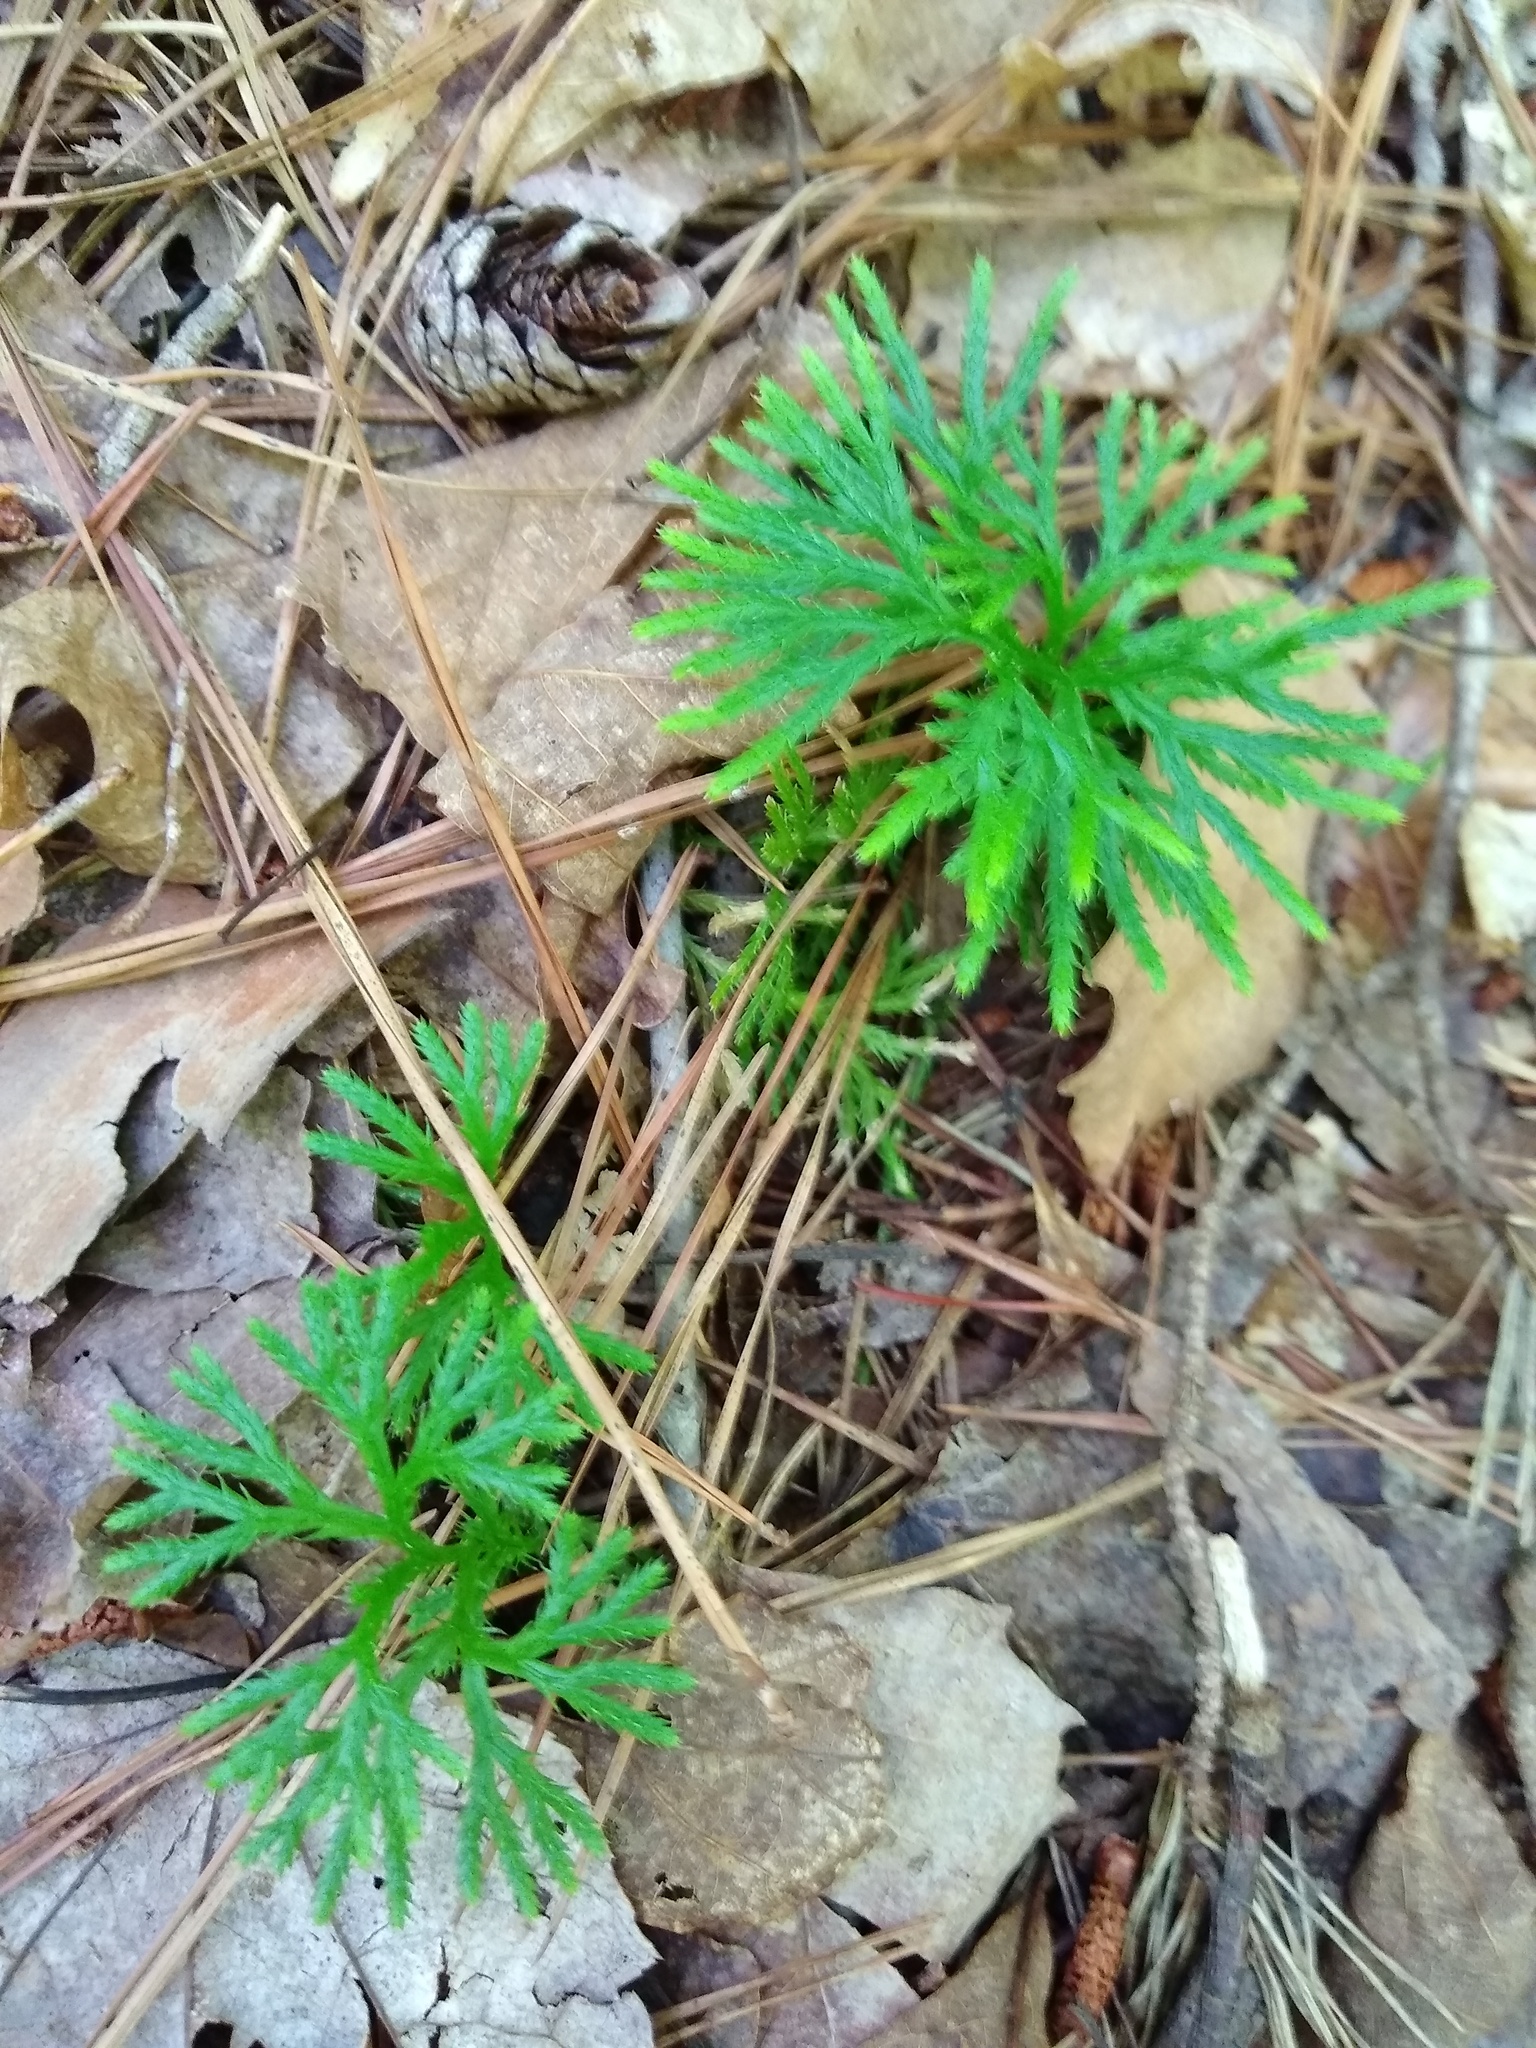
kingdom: Plantae
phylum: Tracheophyta
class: Lycopodiopsida
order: Lycopodiales
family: Lycopodiaceae
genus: Diphasiastrum
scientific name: Diphasiastrum digitatum
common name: Southern running-pine
